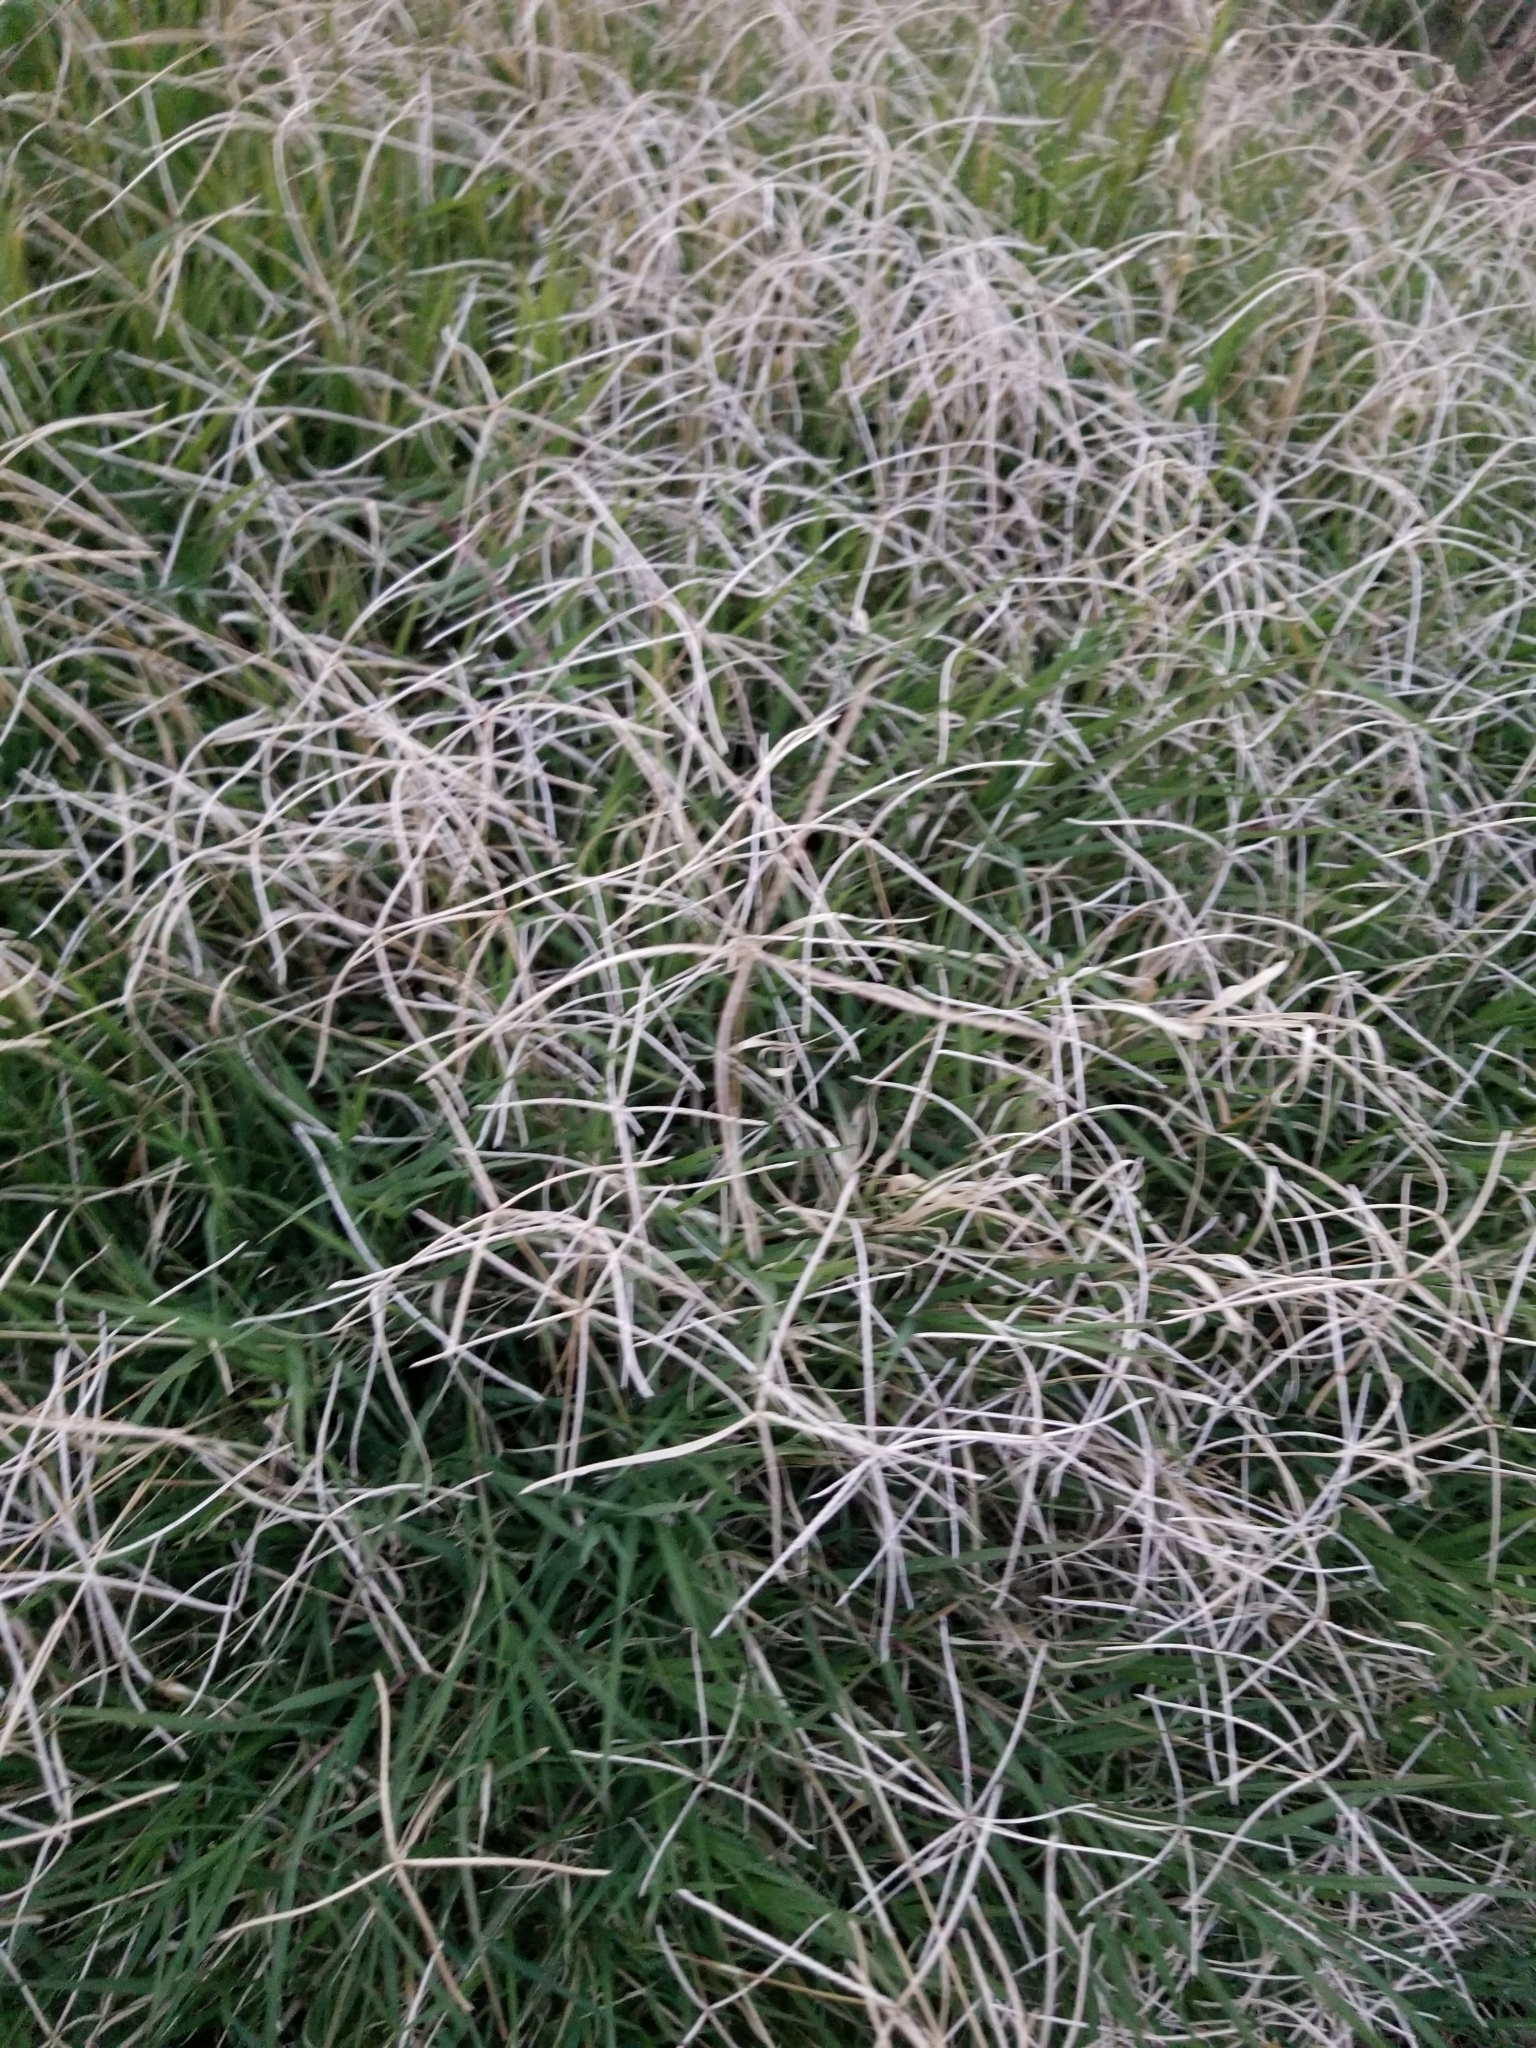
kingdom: Plantae
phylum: Tracheophyta
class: Liliopsida
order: Poales
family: Poaceae
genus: Cynodon
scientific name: Cynodon dactylon
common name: Bermuda grass
